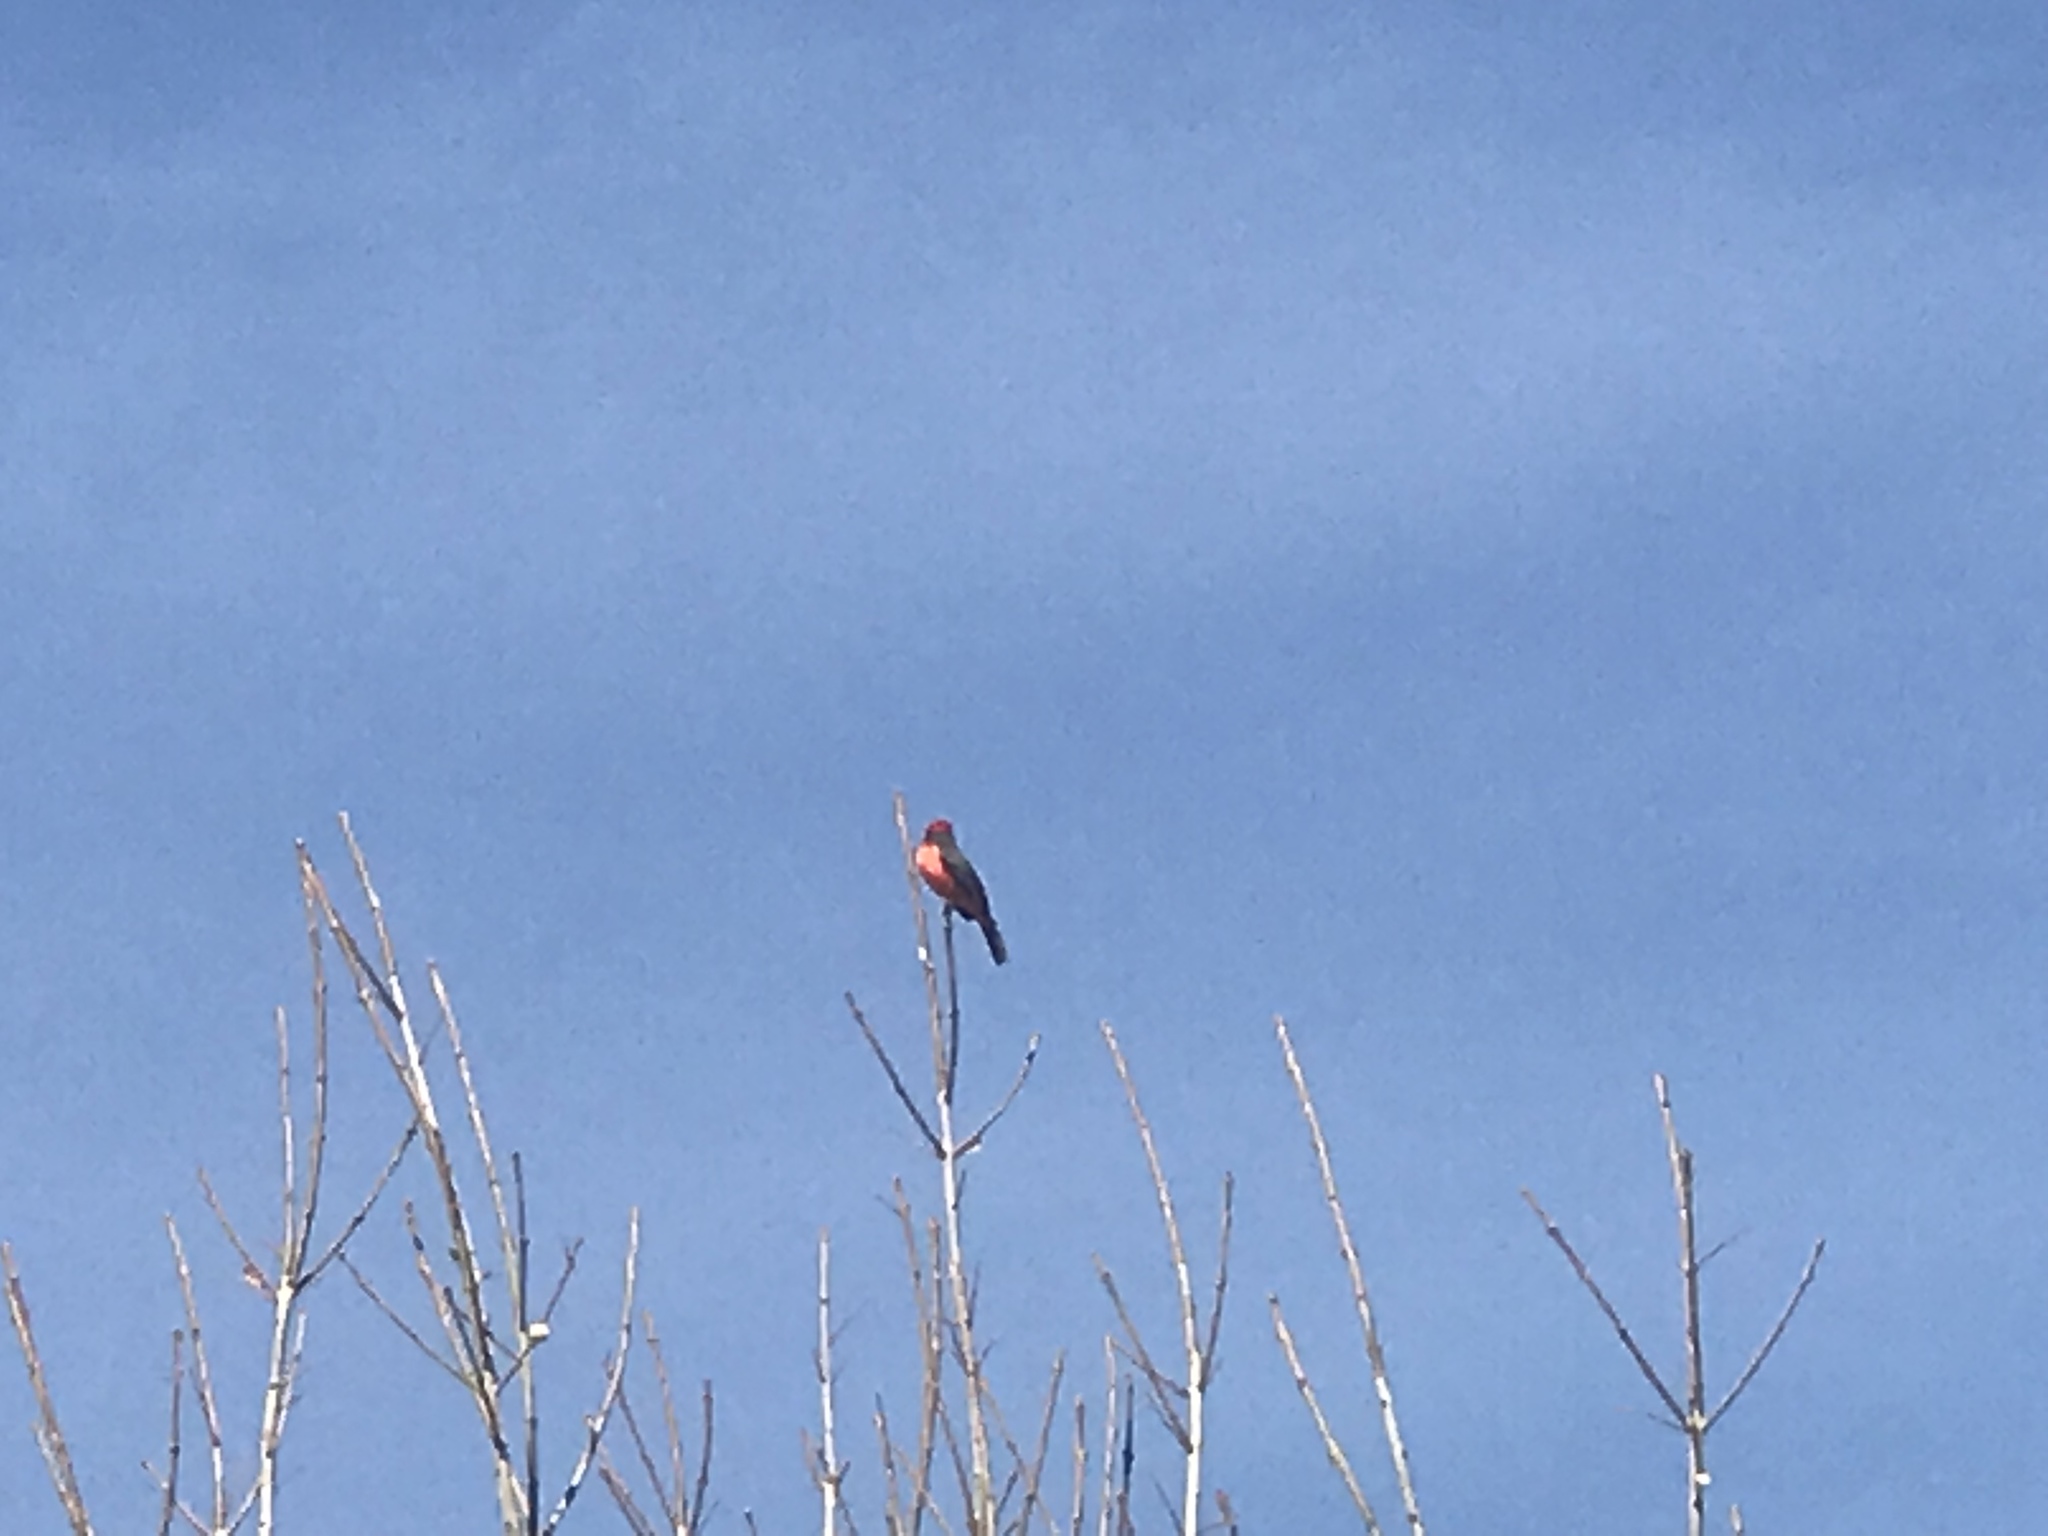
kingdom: Animalia
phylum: Chordata
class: Aves
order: Passeriformes
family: Tyrannidae
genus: Pyrocephalus
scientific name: Pyrocephalus rubinus
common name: Vermilion flycatcher
